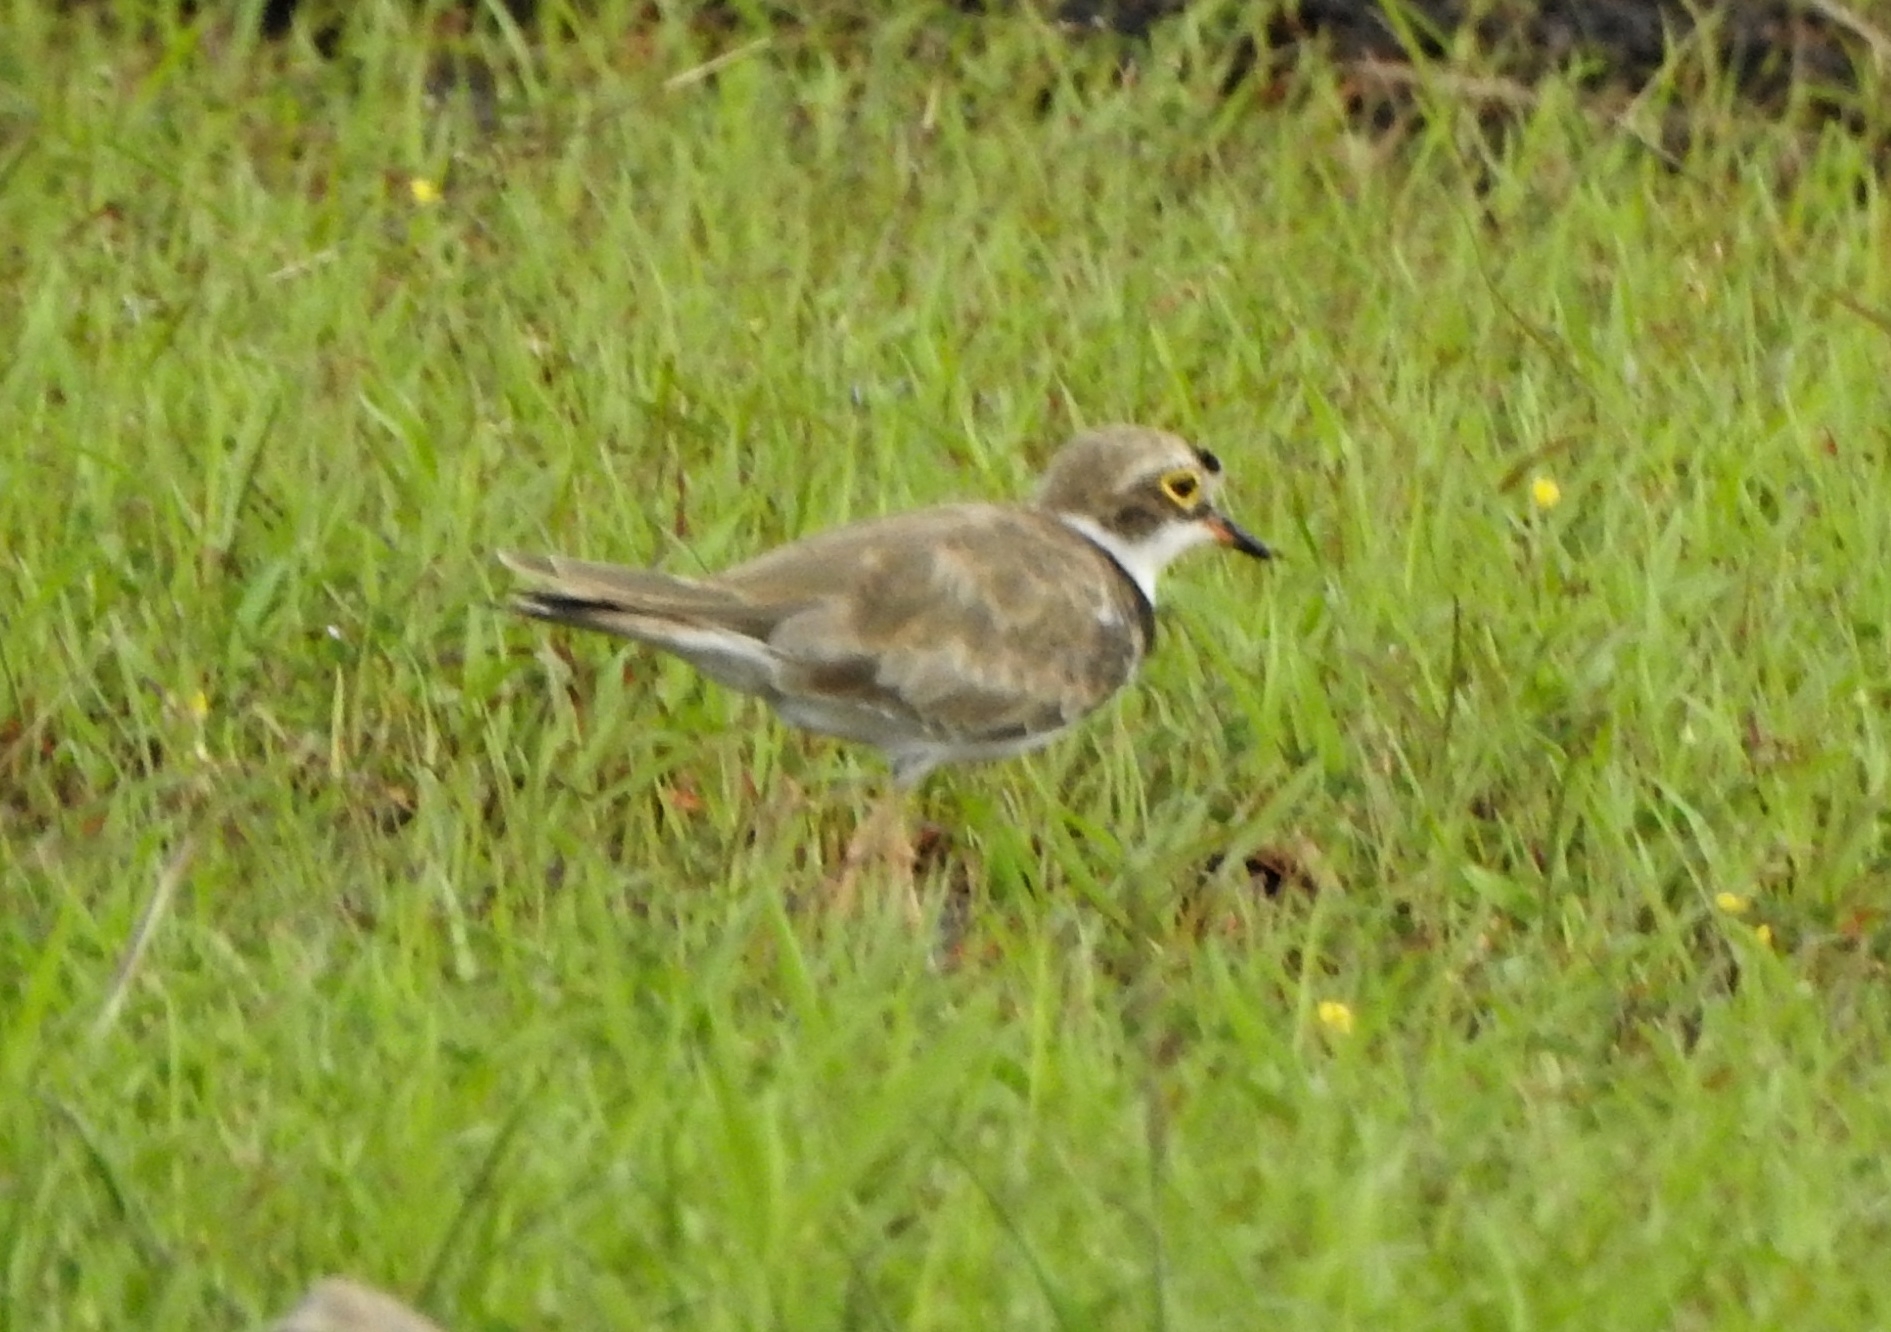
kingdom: Animalia
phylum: Chordata
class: Aves
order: Charadriiformes
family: Charadriidae
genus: Charadrius
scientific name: Charadrius dubius
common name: Little ringed plover
